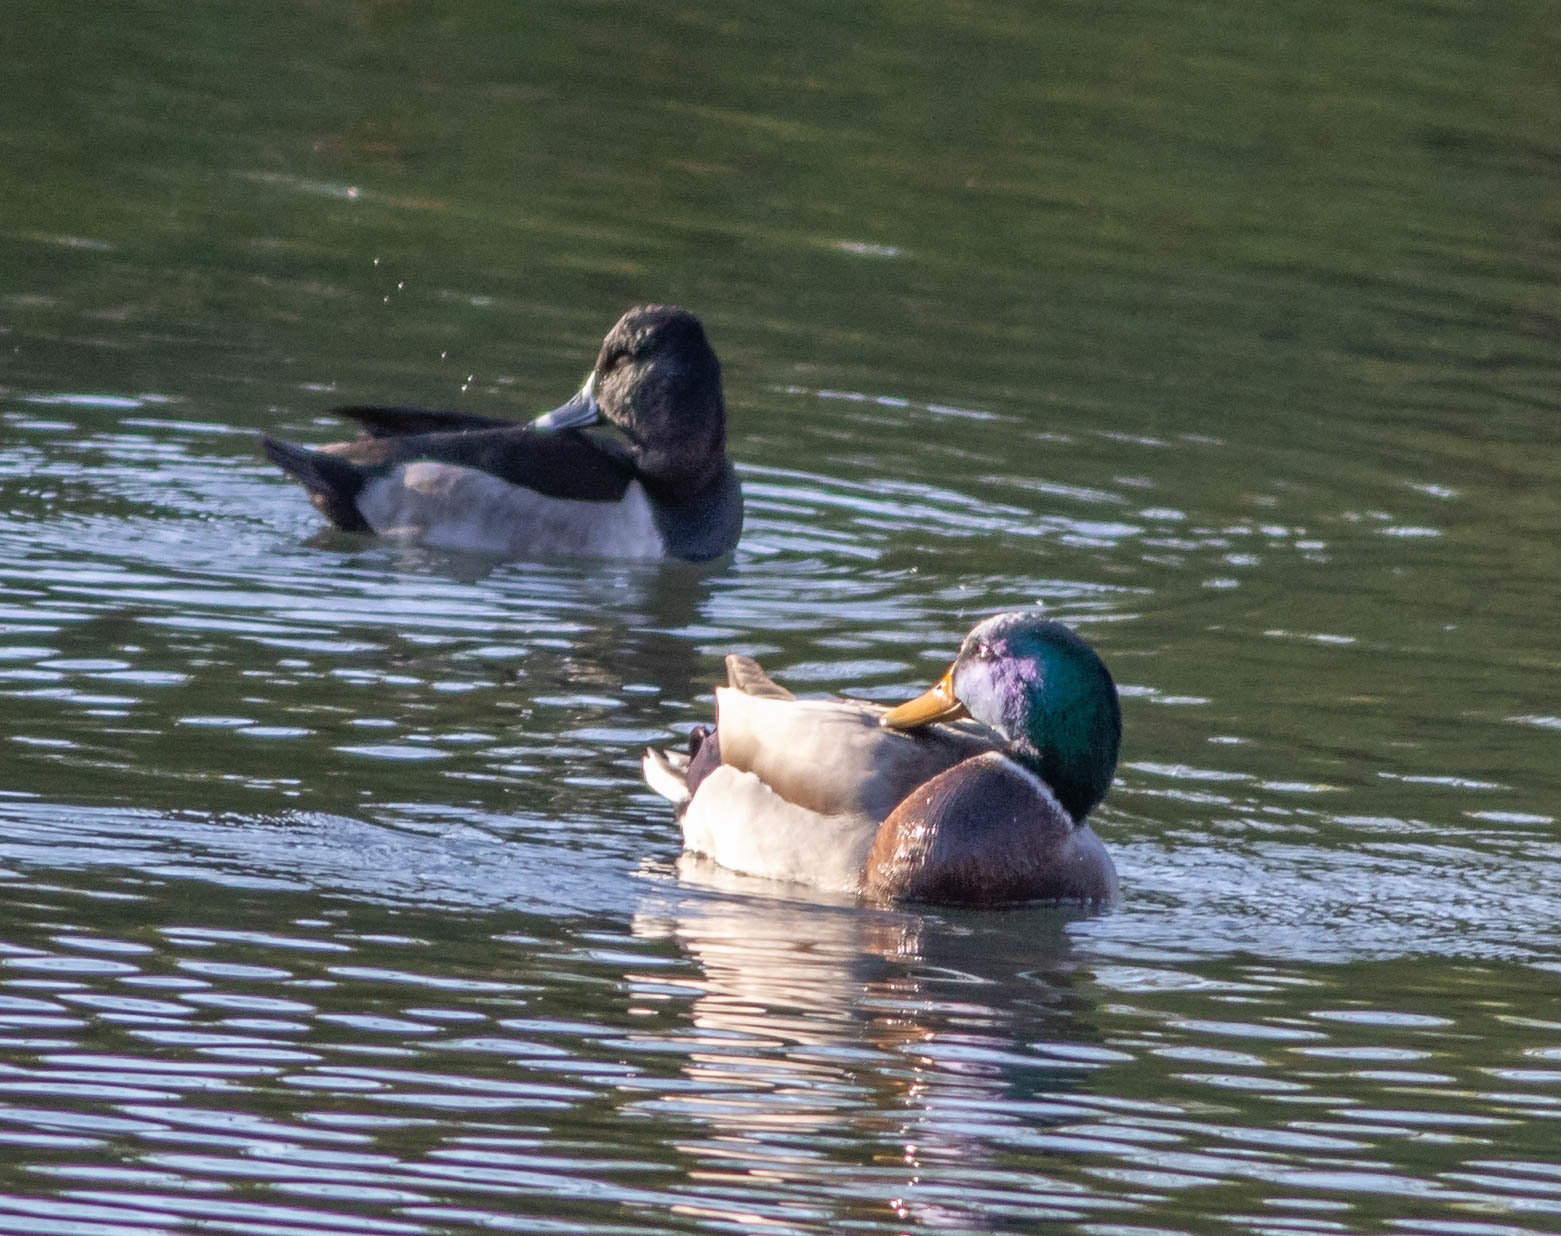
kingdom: Animalia
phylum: Chordata
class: Aves
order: Anseriformes
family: Anatidae
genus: Anas
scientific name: Anas platyrhynchos
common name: Mallard
